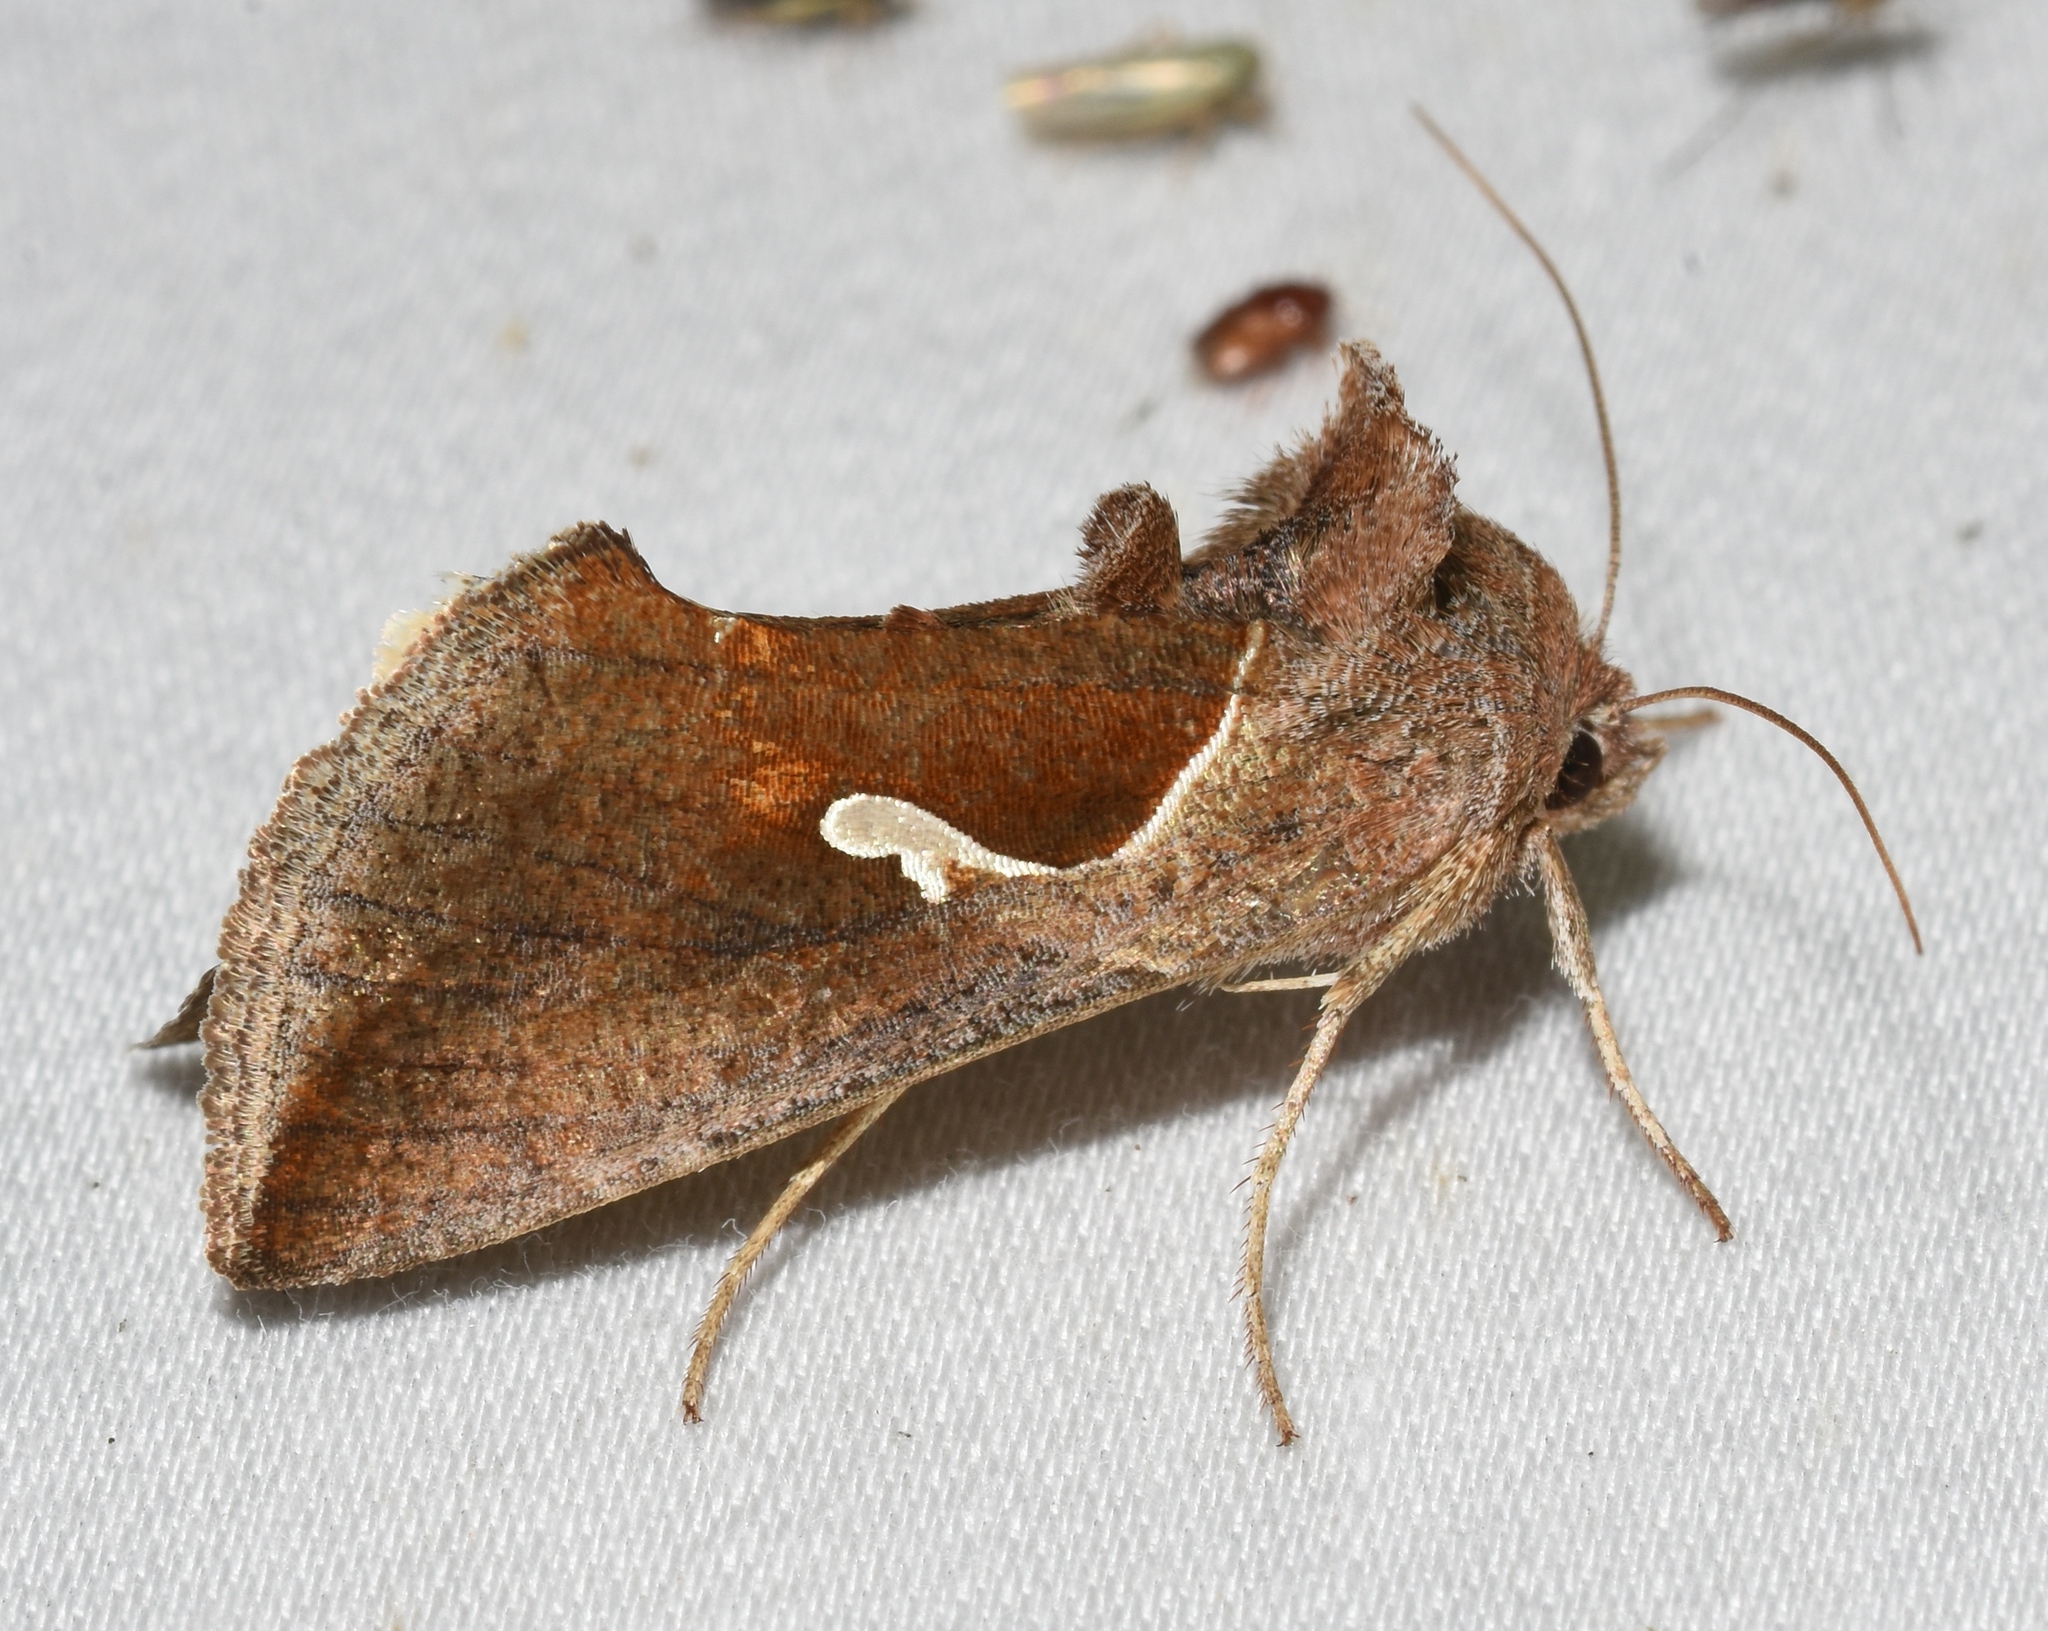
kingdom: Animalia
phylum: Arthropoda
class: Insecta
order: Lepidoptera
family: Noctuidae
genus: Anagrapha
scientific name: Anagrapha falcifera
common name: Celery looper
